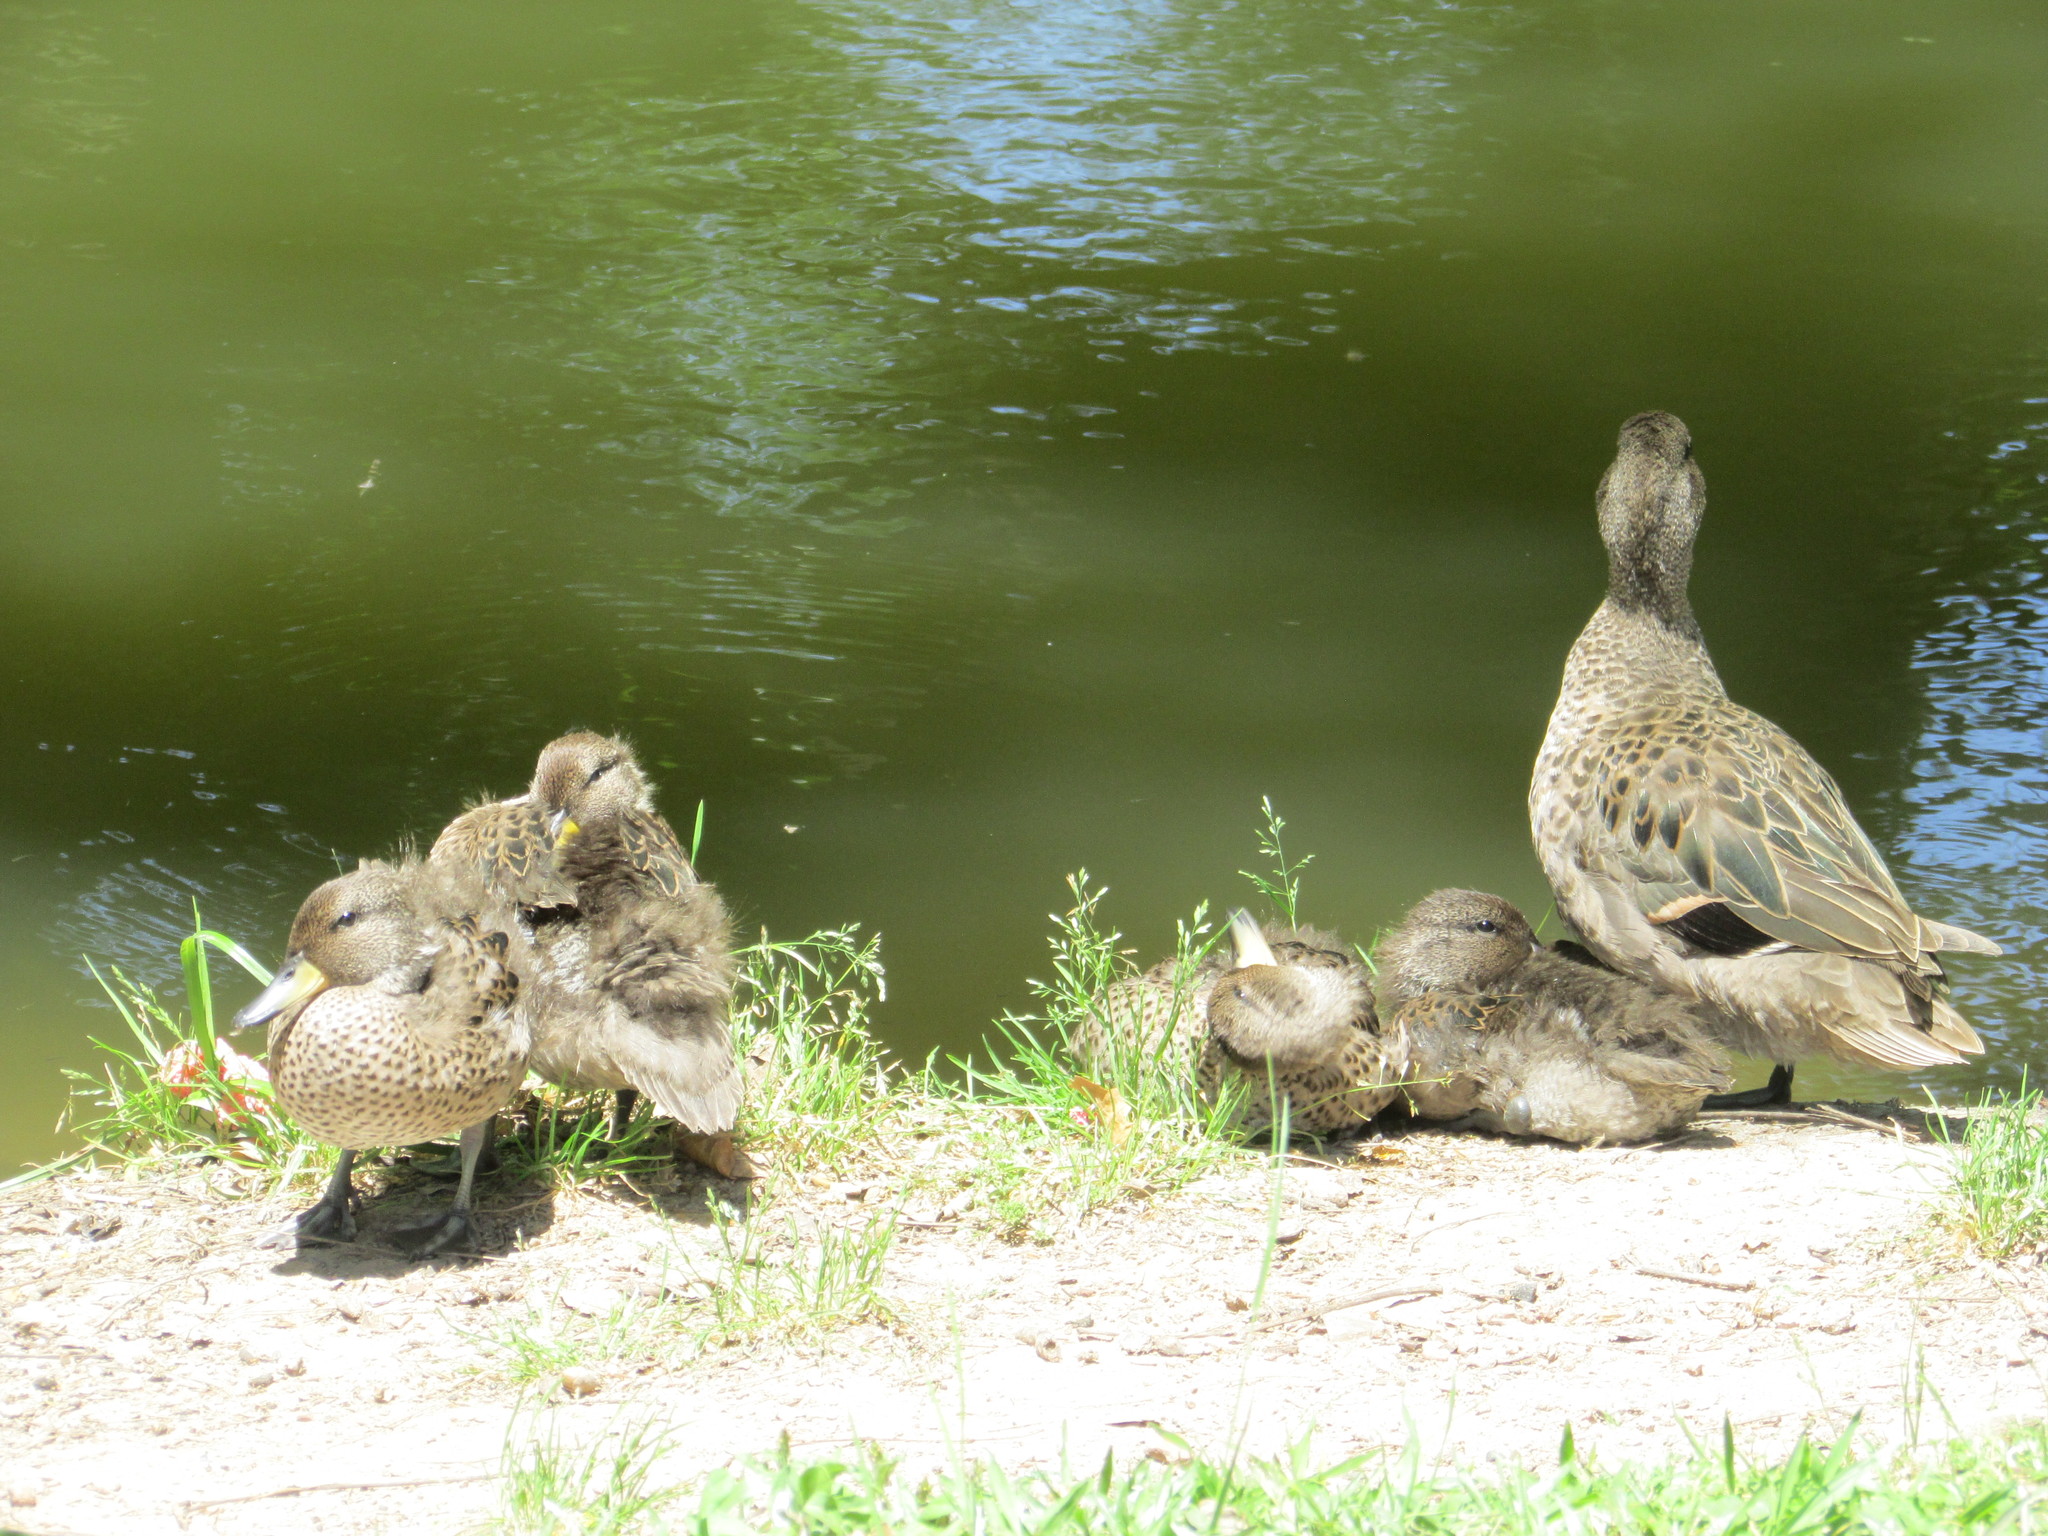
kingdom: Animalia
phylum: Chordata
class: Aves
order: Anseriformes
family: Anatidae
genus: Anas
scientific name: Anas flavirostris
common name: Yellow-billed teal
